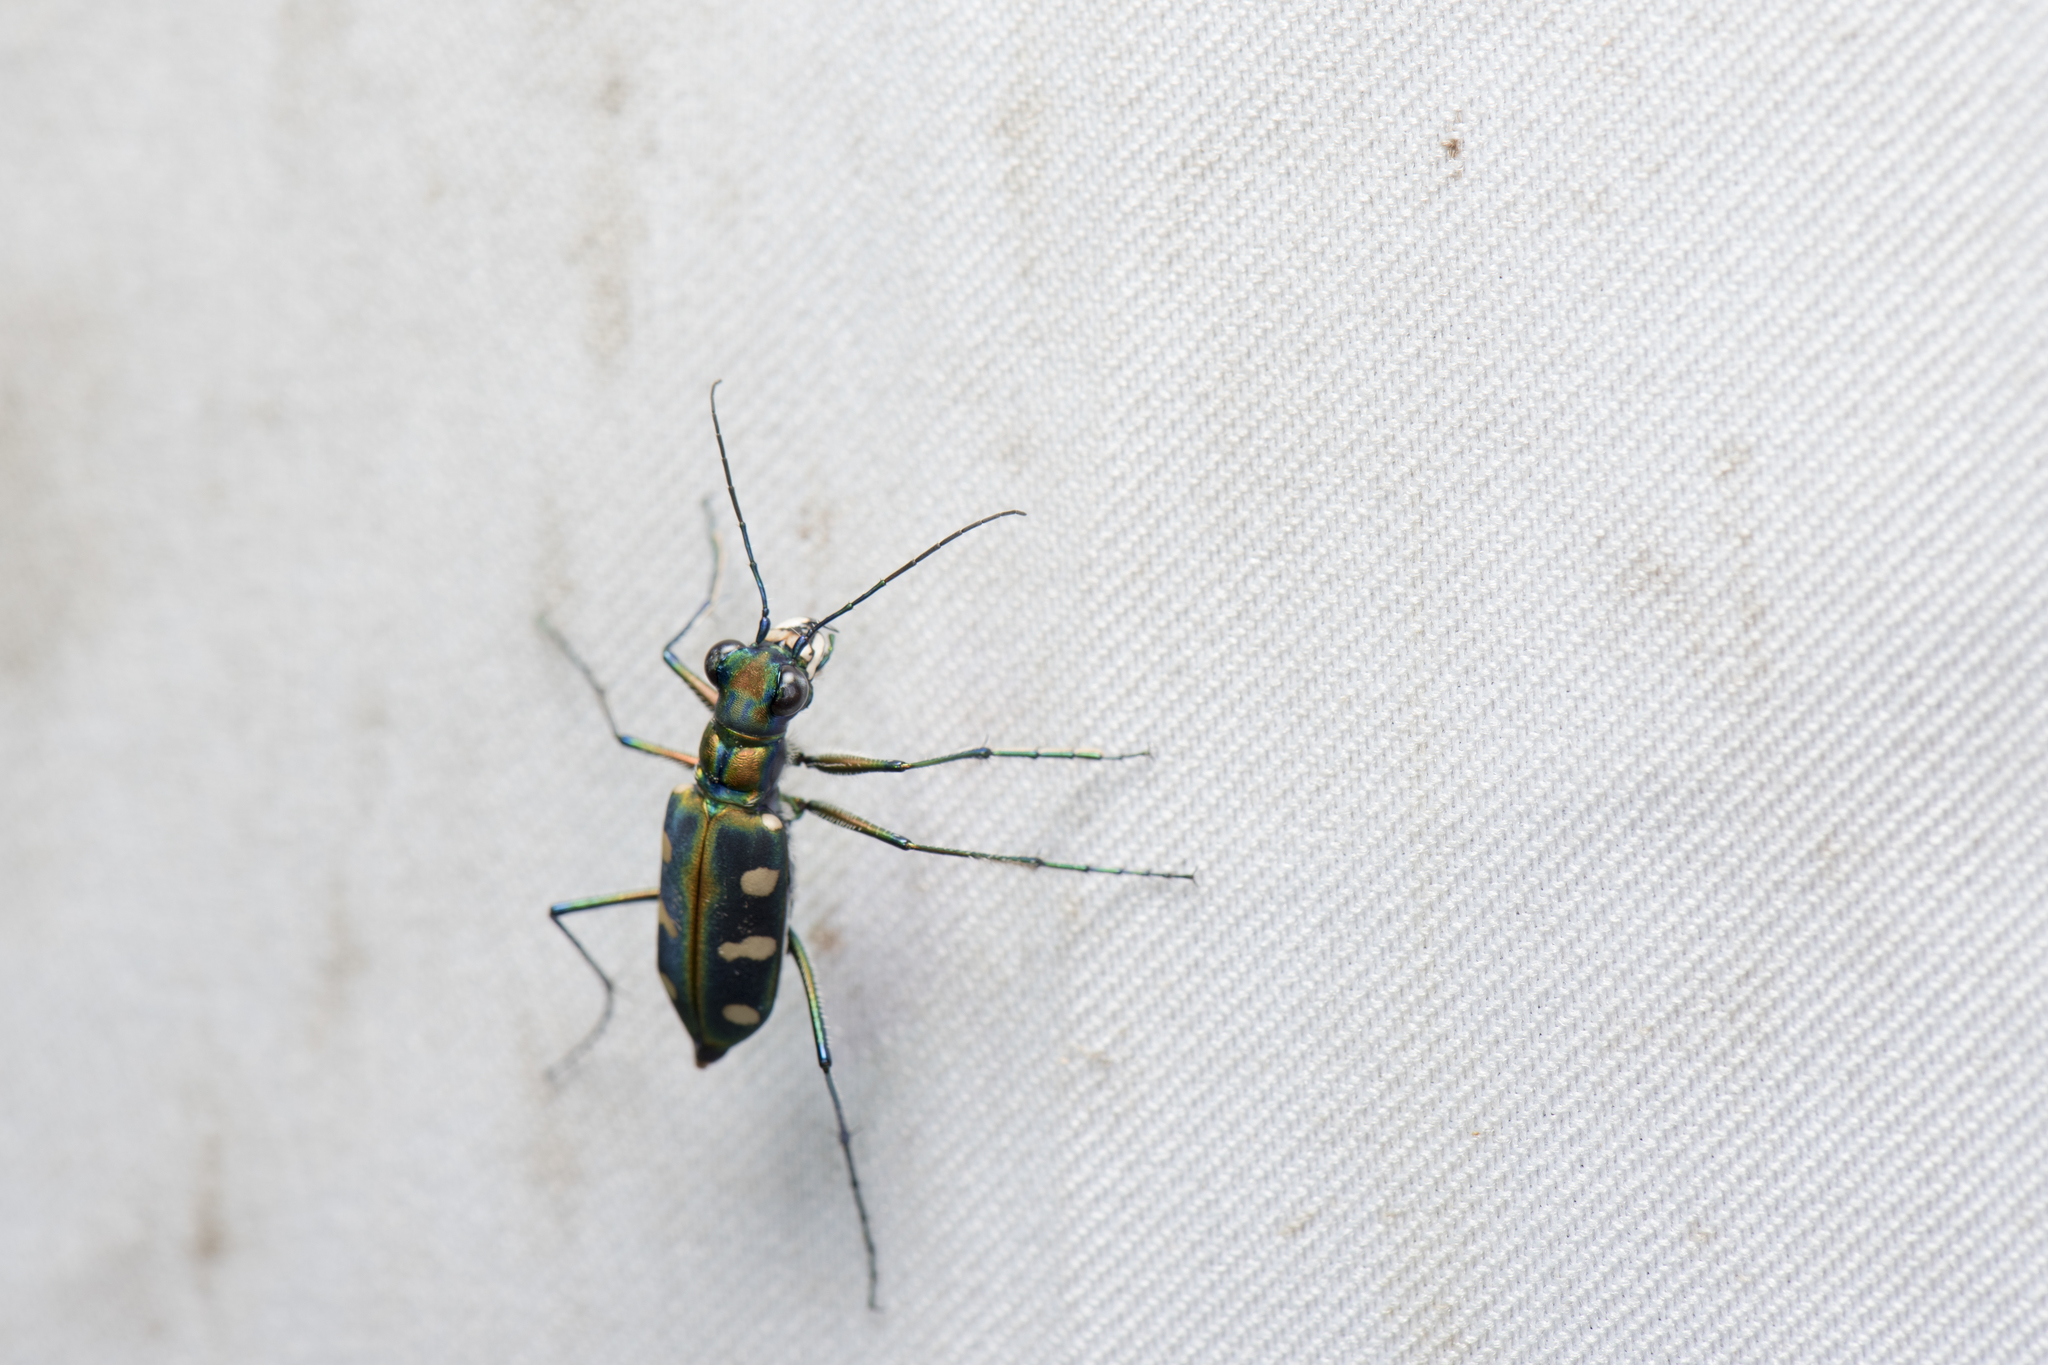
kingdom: Animalia
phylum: Arthropoda
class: Insecta
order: Coleoptera
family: Carabidae
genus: Cicindela
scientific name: Cicindela batesi
